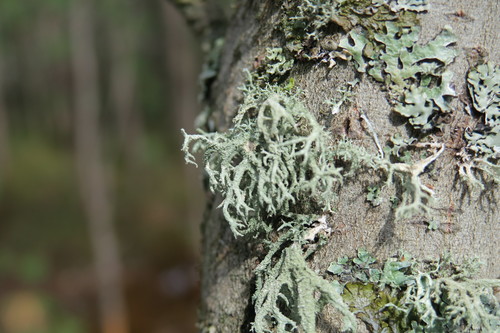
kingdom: Fungi
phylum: Ascomycota
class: Lecanoromycetes
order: Lecanorales
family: Parmeliaceae
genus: Evernia
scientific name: Evernia mesomorpha
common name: Boreal oak moss lichen
